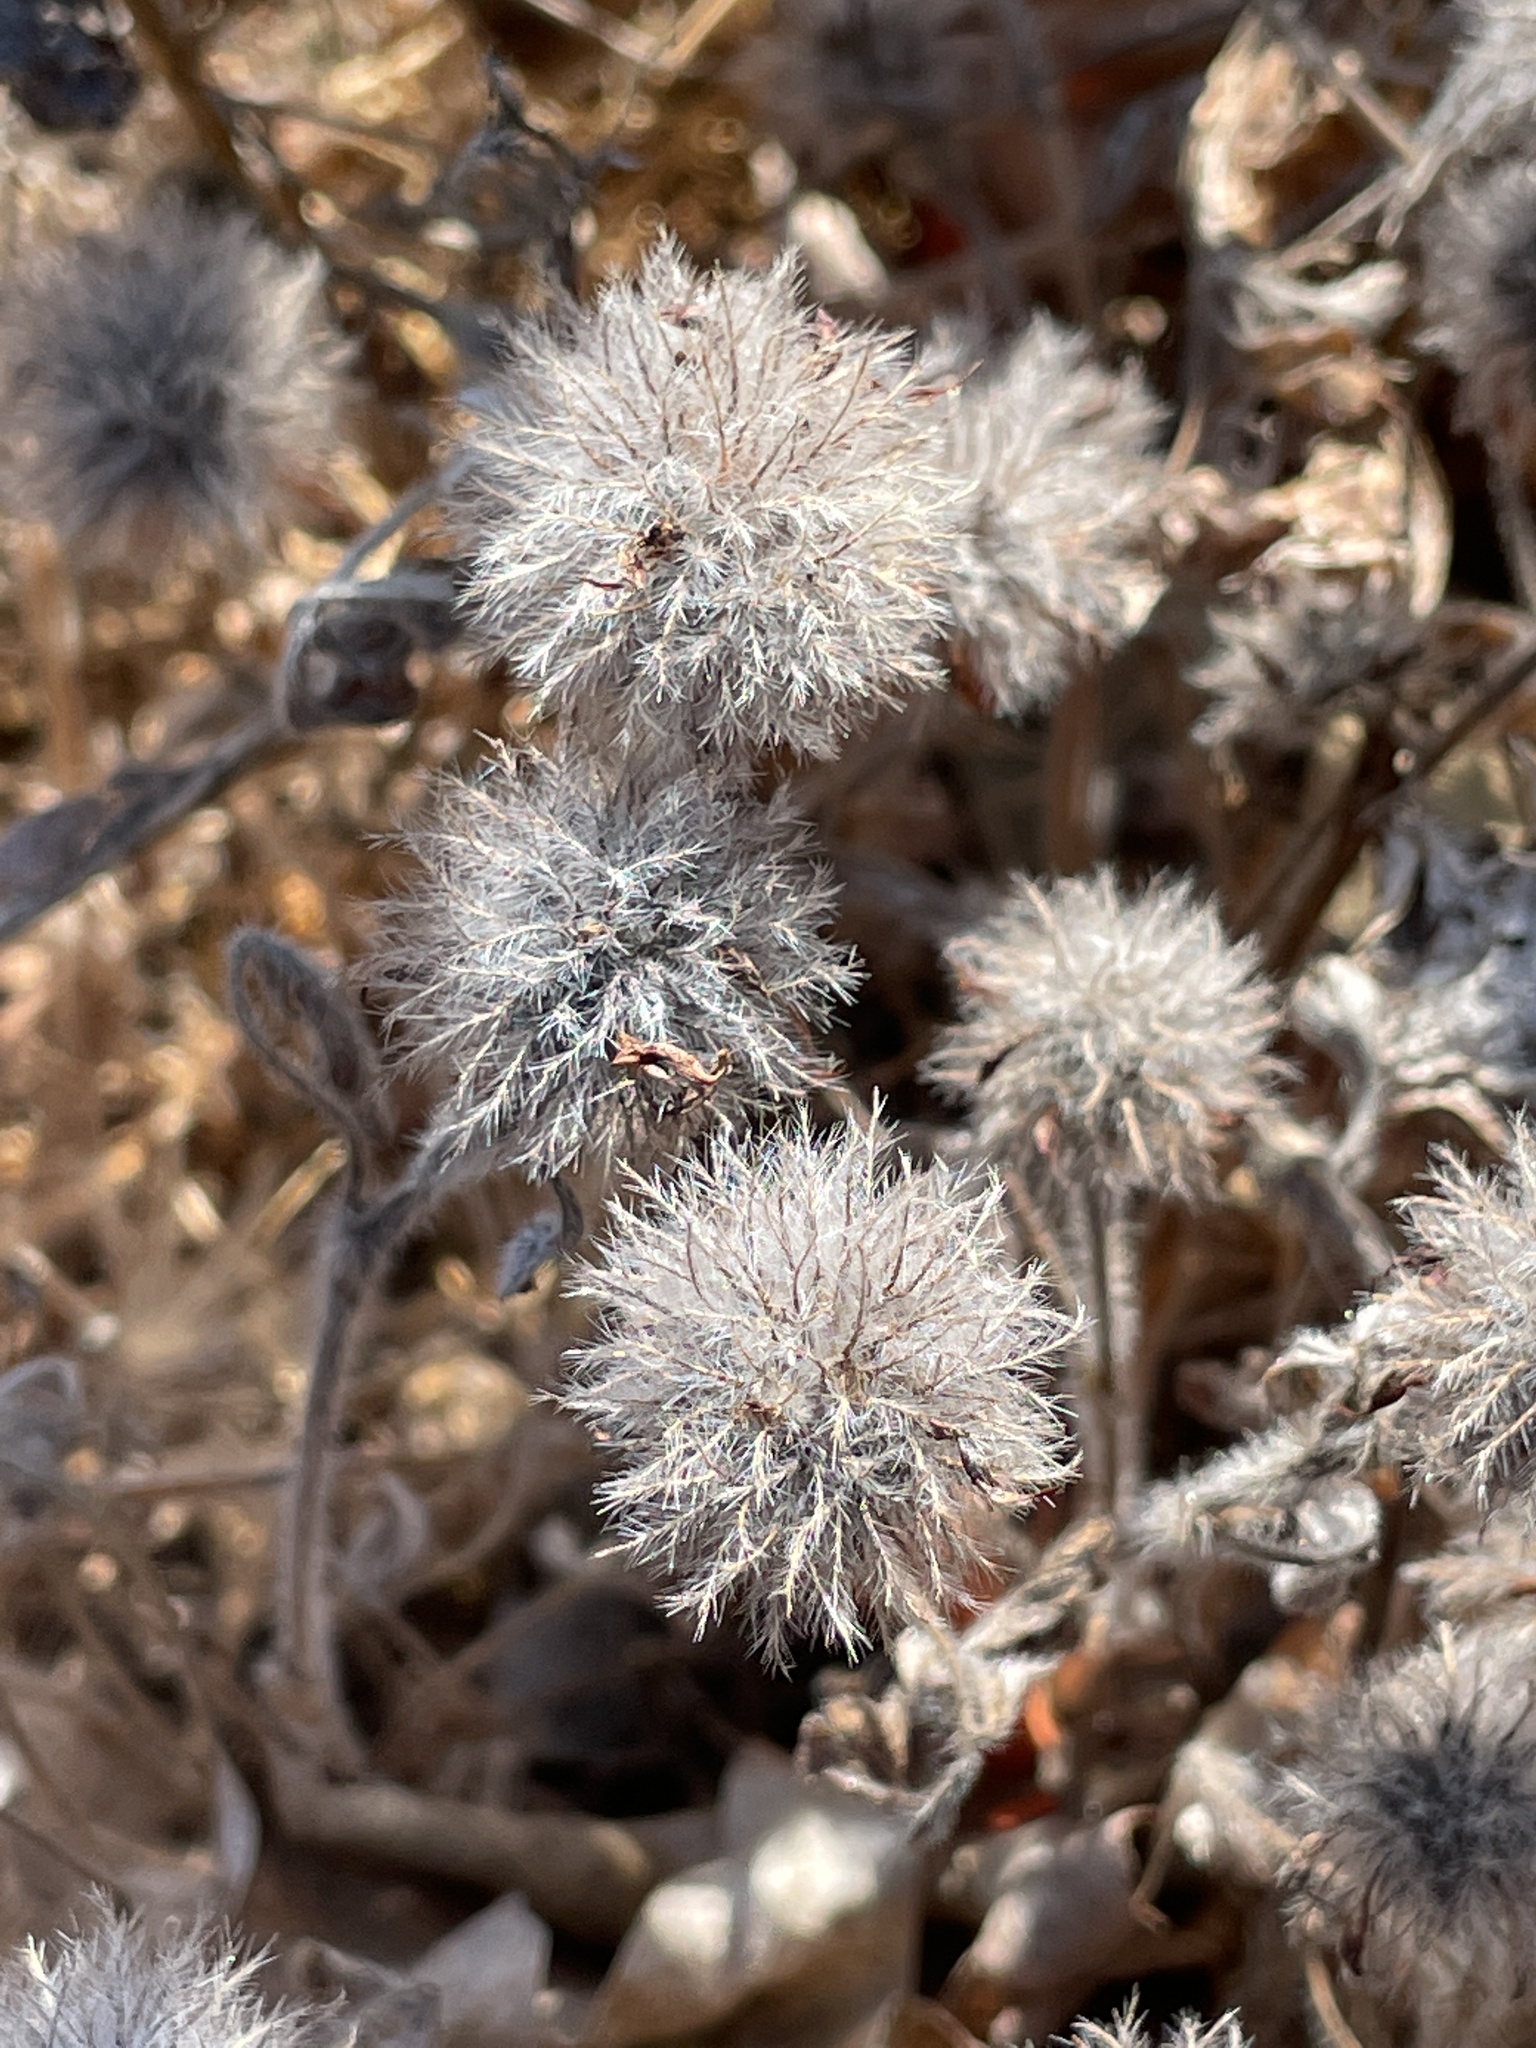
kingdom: Plantae
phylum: Tracheophyta
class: Magnoliopsida
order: Fabales
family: Fabaceae
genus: Trifolium
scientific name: Trifolium hirtum
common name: Rose clover
